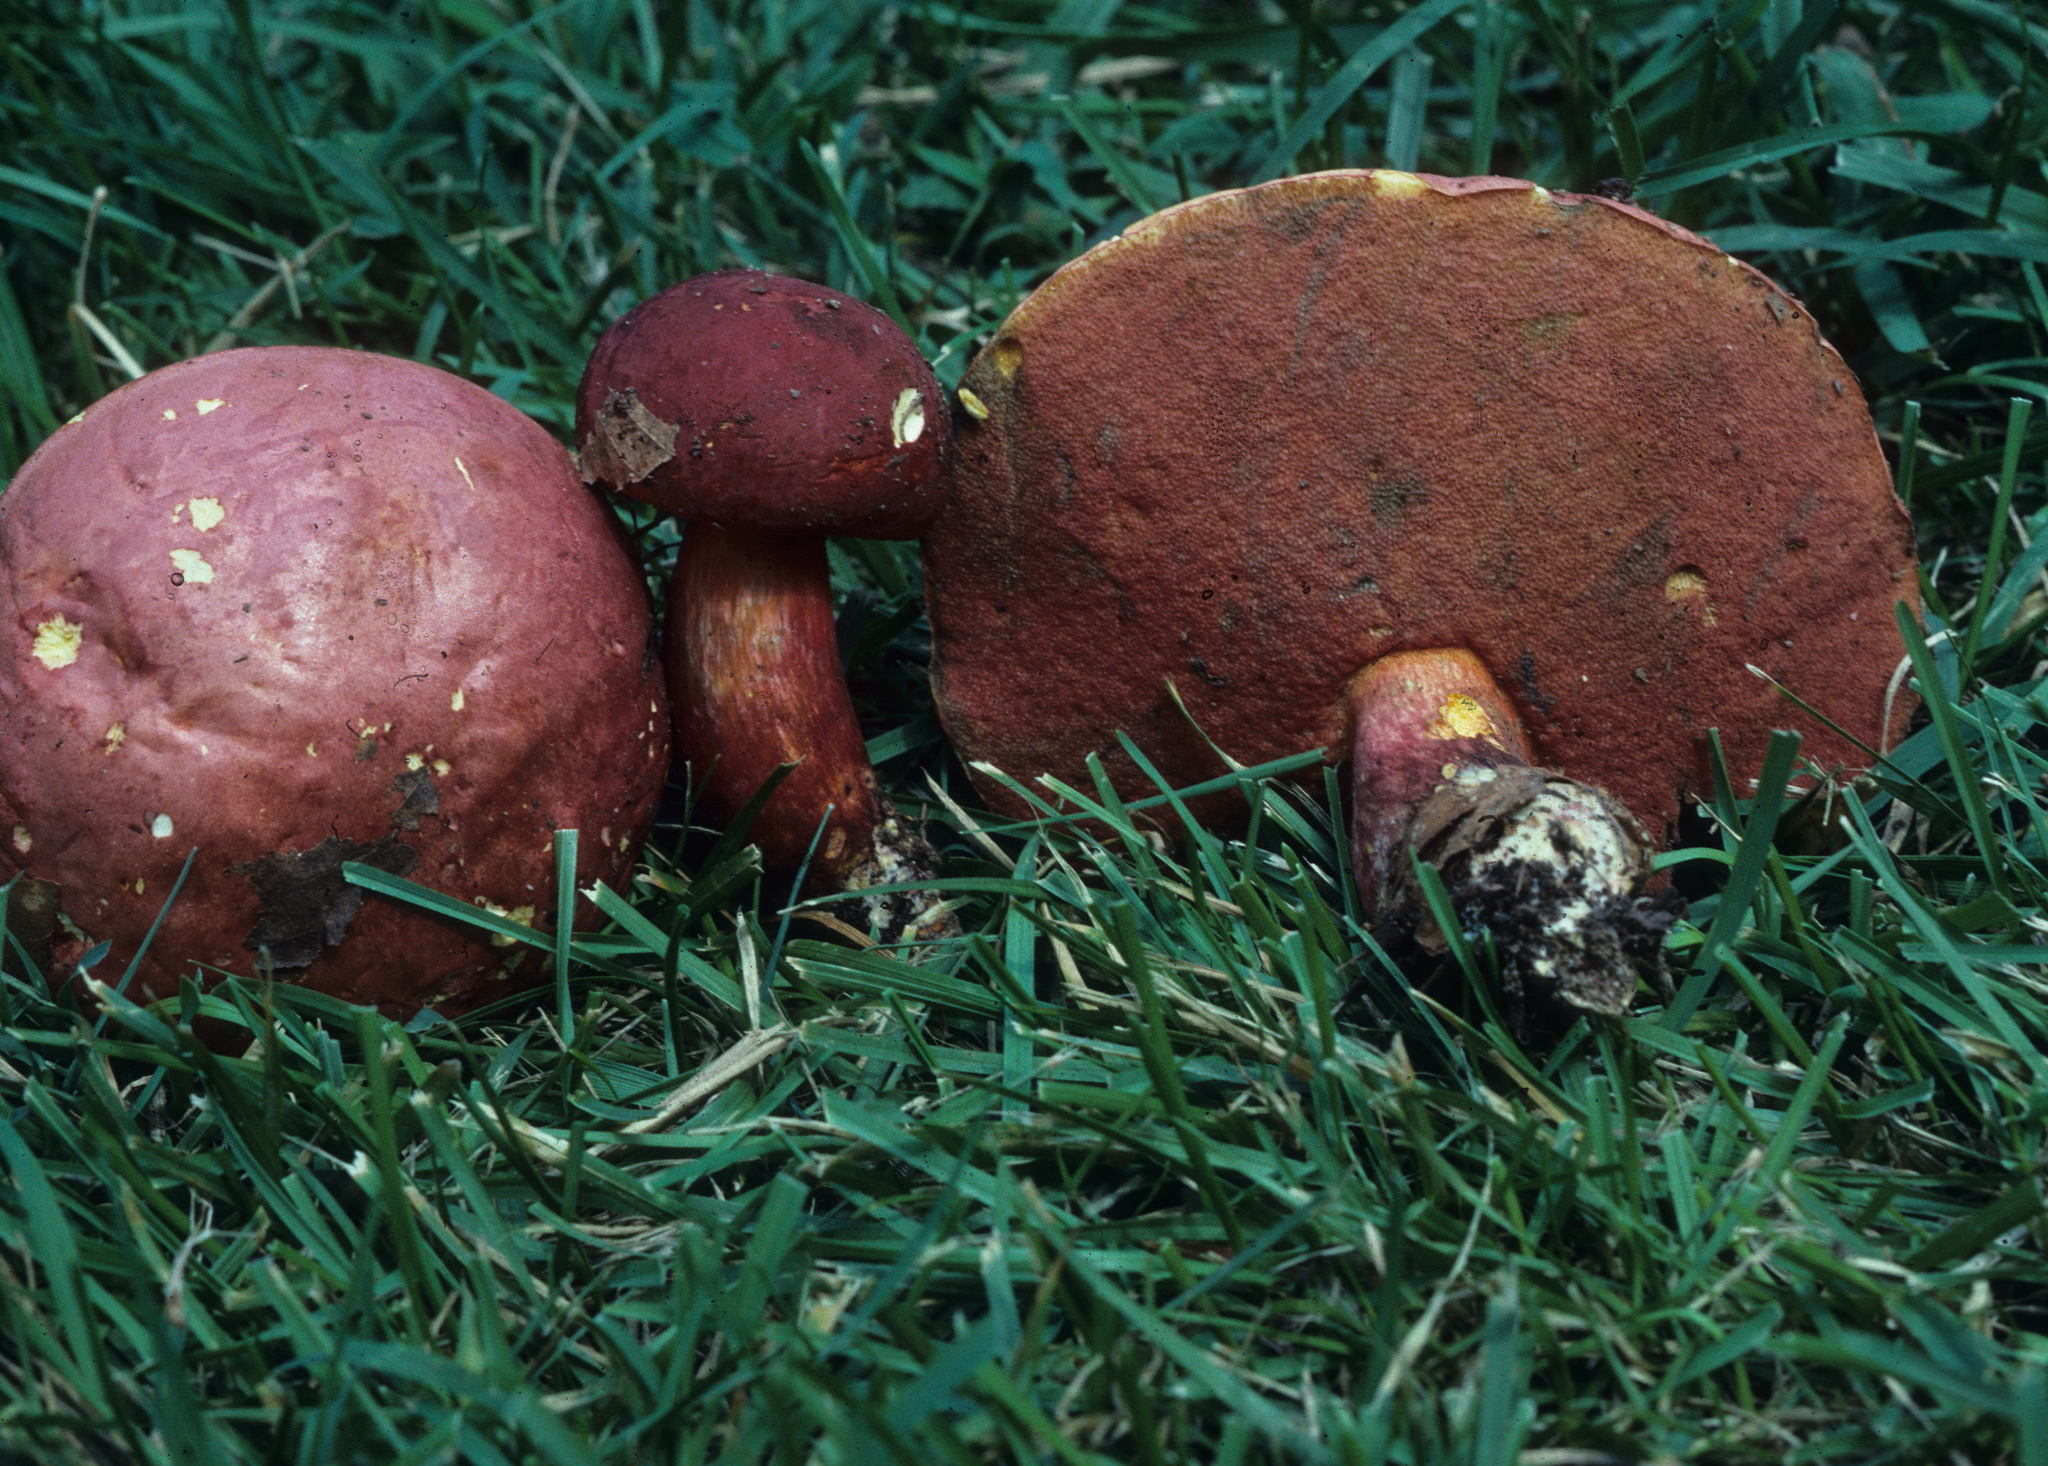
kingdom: Fungi
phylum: Basidiomycota
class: Agaricomycetes
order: Boletales
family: Boletaceae
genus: Baorangia
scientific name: Baorangia bicolor
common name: Two-colored bolete
